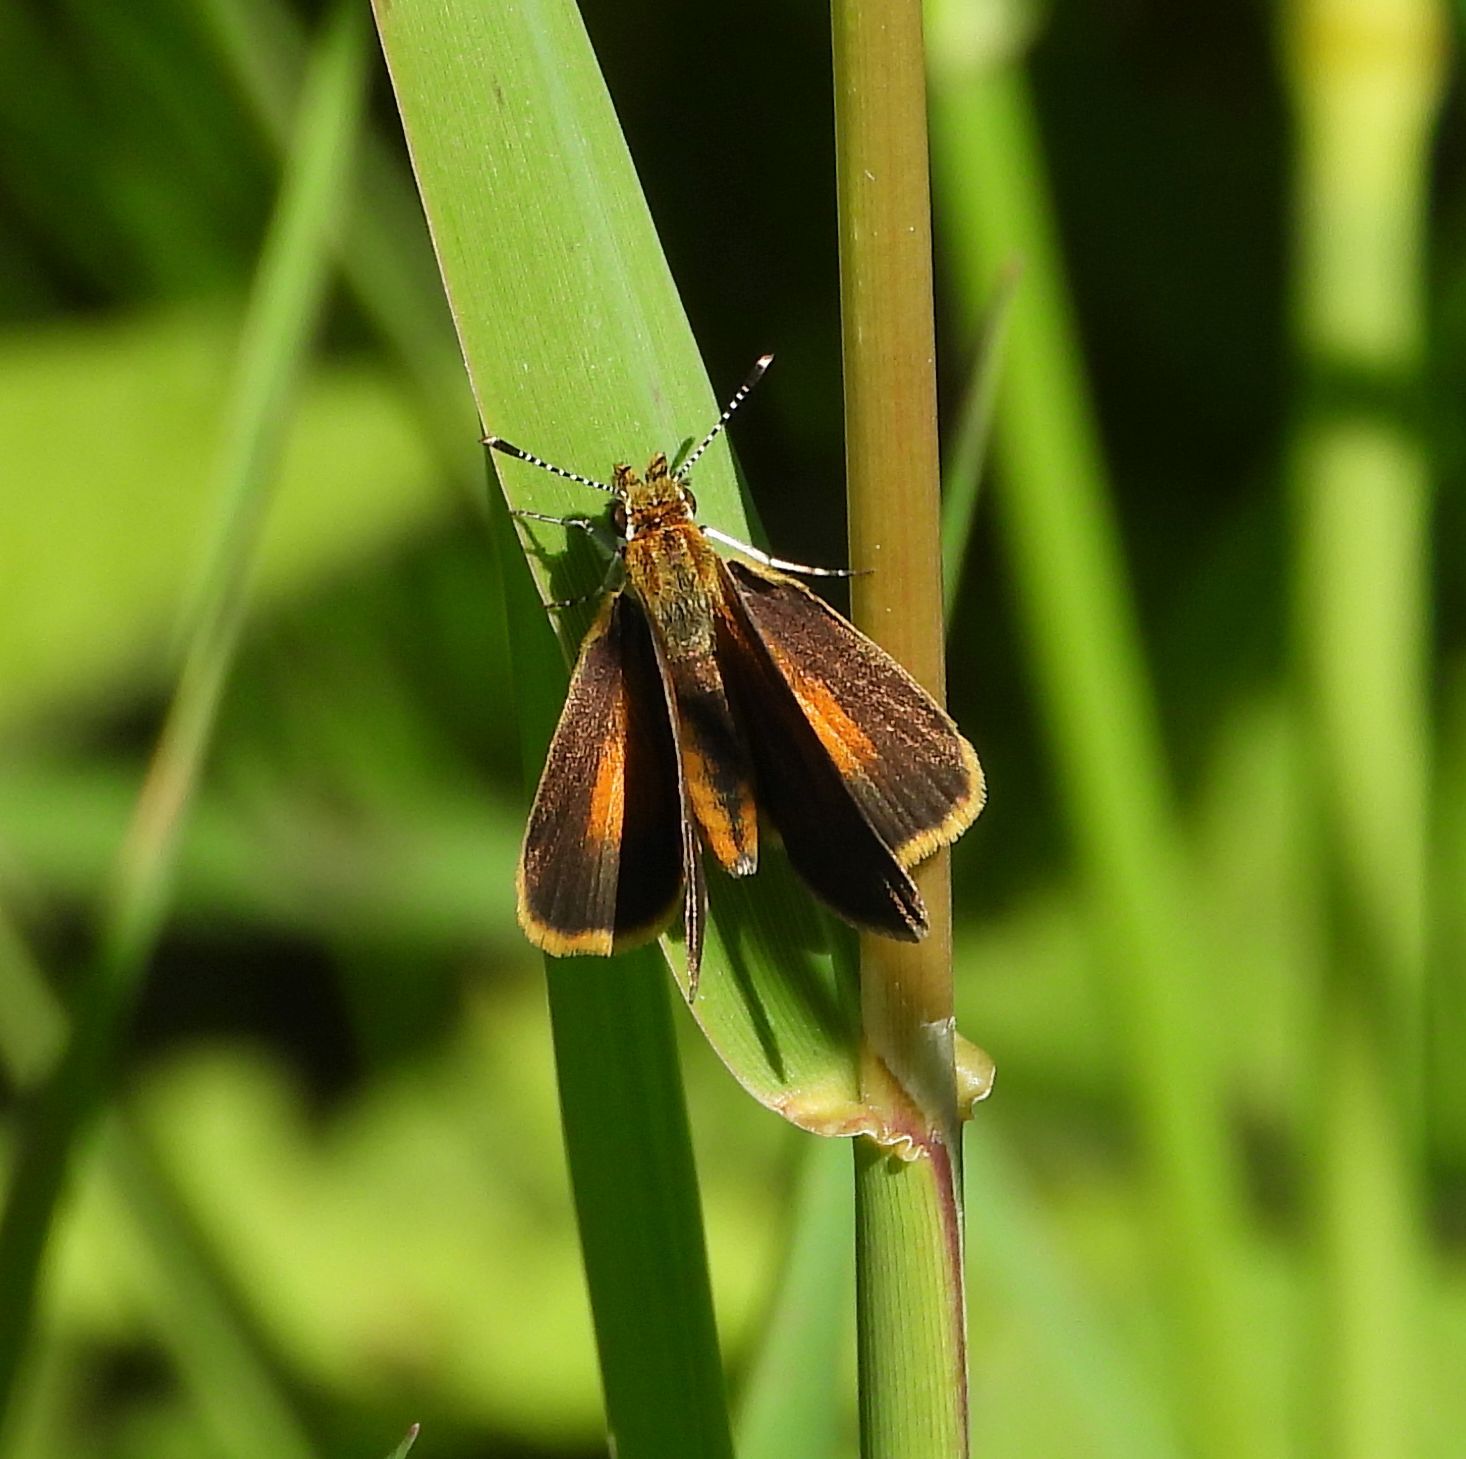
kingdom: Animalia
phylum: Arthropoda
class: Insecta
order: Lepidoptera
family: Hesperiidae
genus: Ancyloxypha
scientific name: Ancyloxypha numitor
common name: Least skipper
